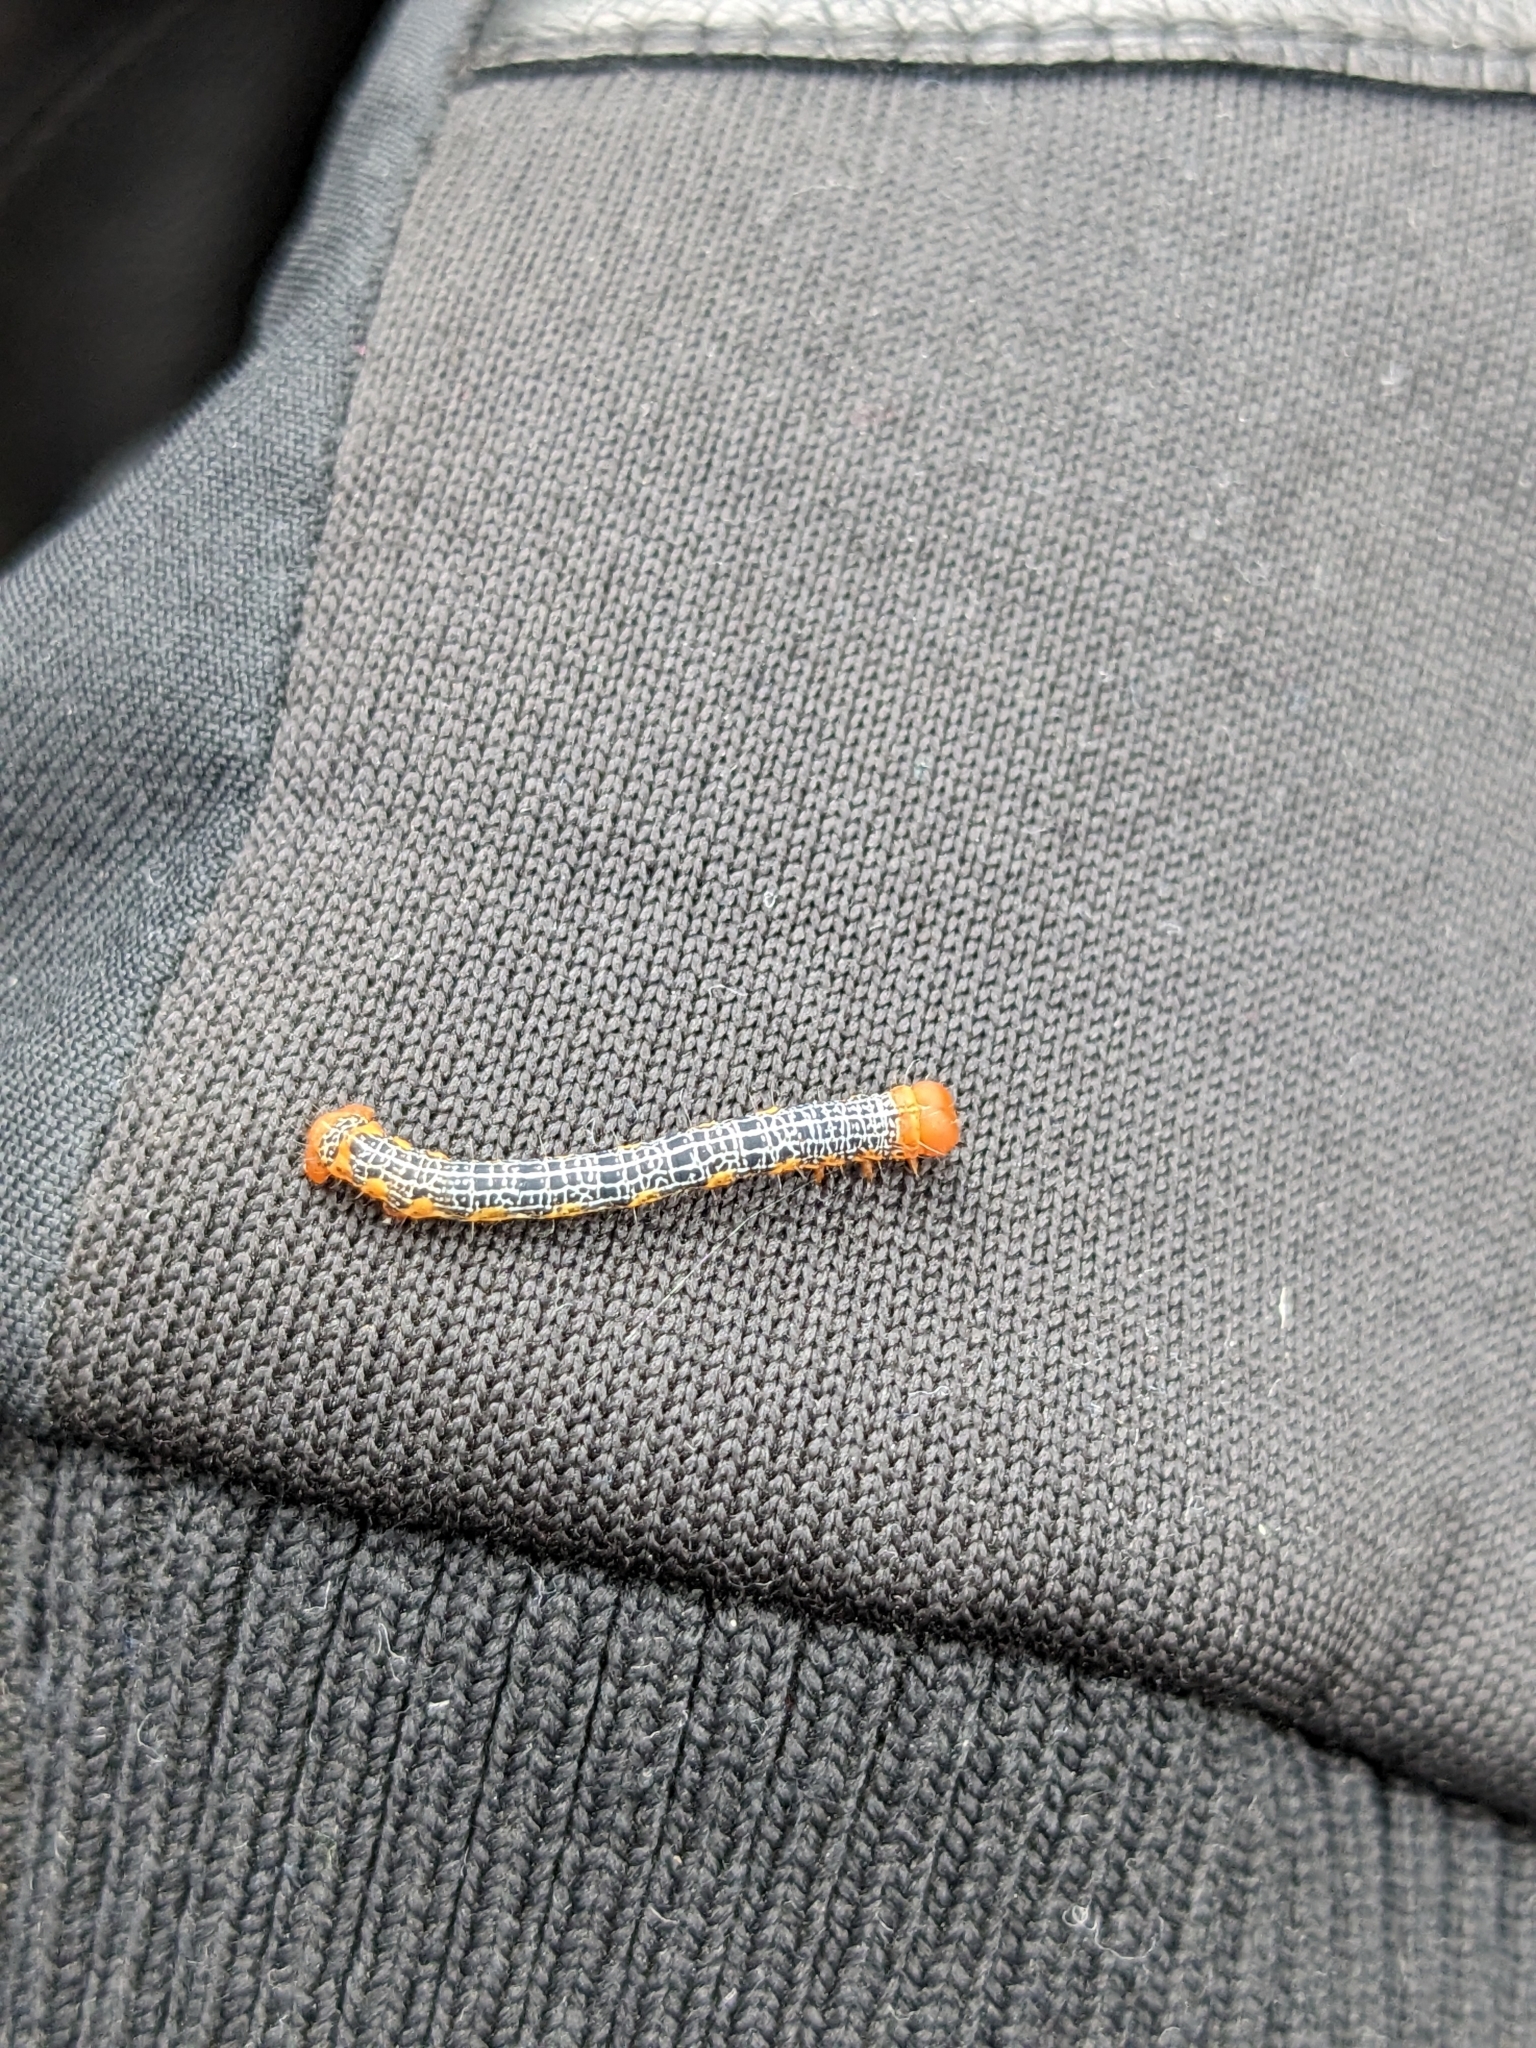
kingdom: Animalia
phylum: Arthropoda
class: Insecta
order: Lepidoptera
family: Geometridae
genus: Milionia
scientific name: Milionia basalis
